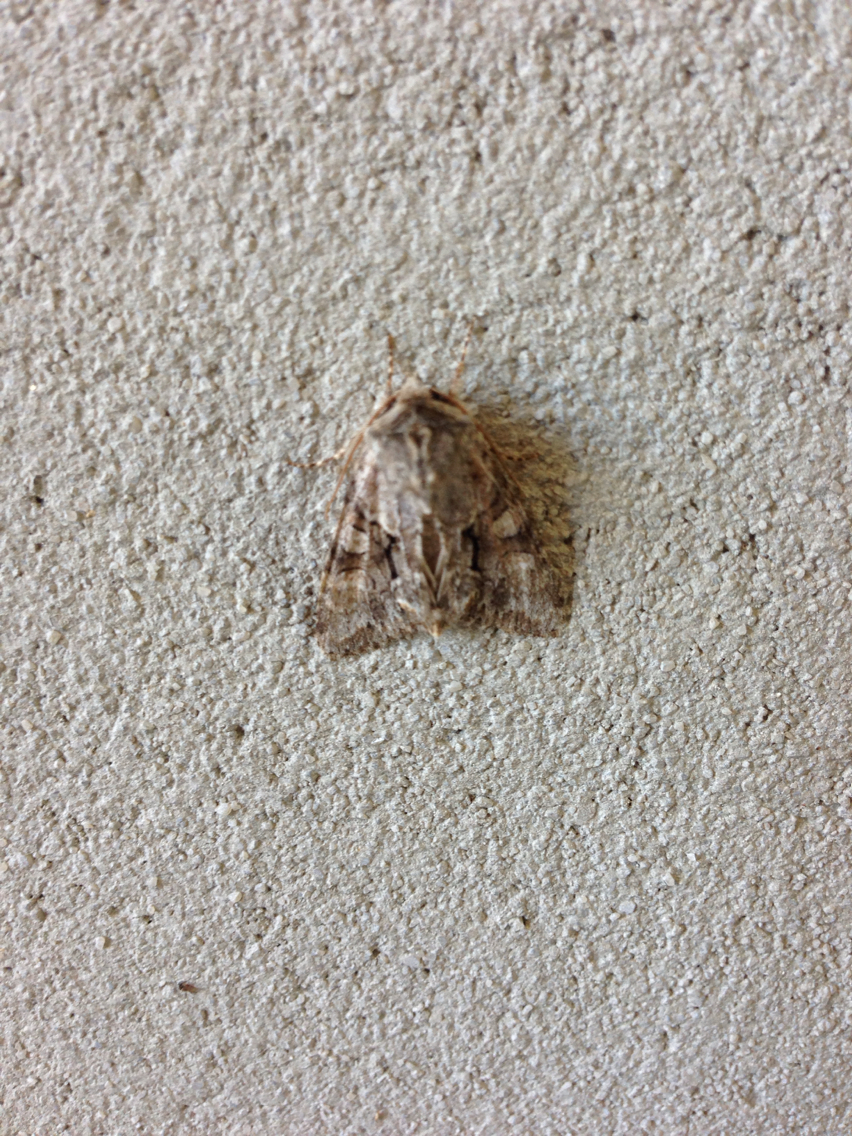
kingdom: Animalia
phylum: Arthropoda
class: Insecta
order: Lepidoptera
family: Noctuidae
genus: Achatia
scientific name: Achatia distincta
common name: Distinct quaker
